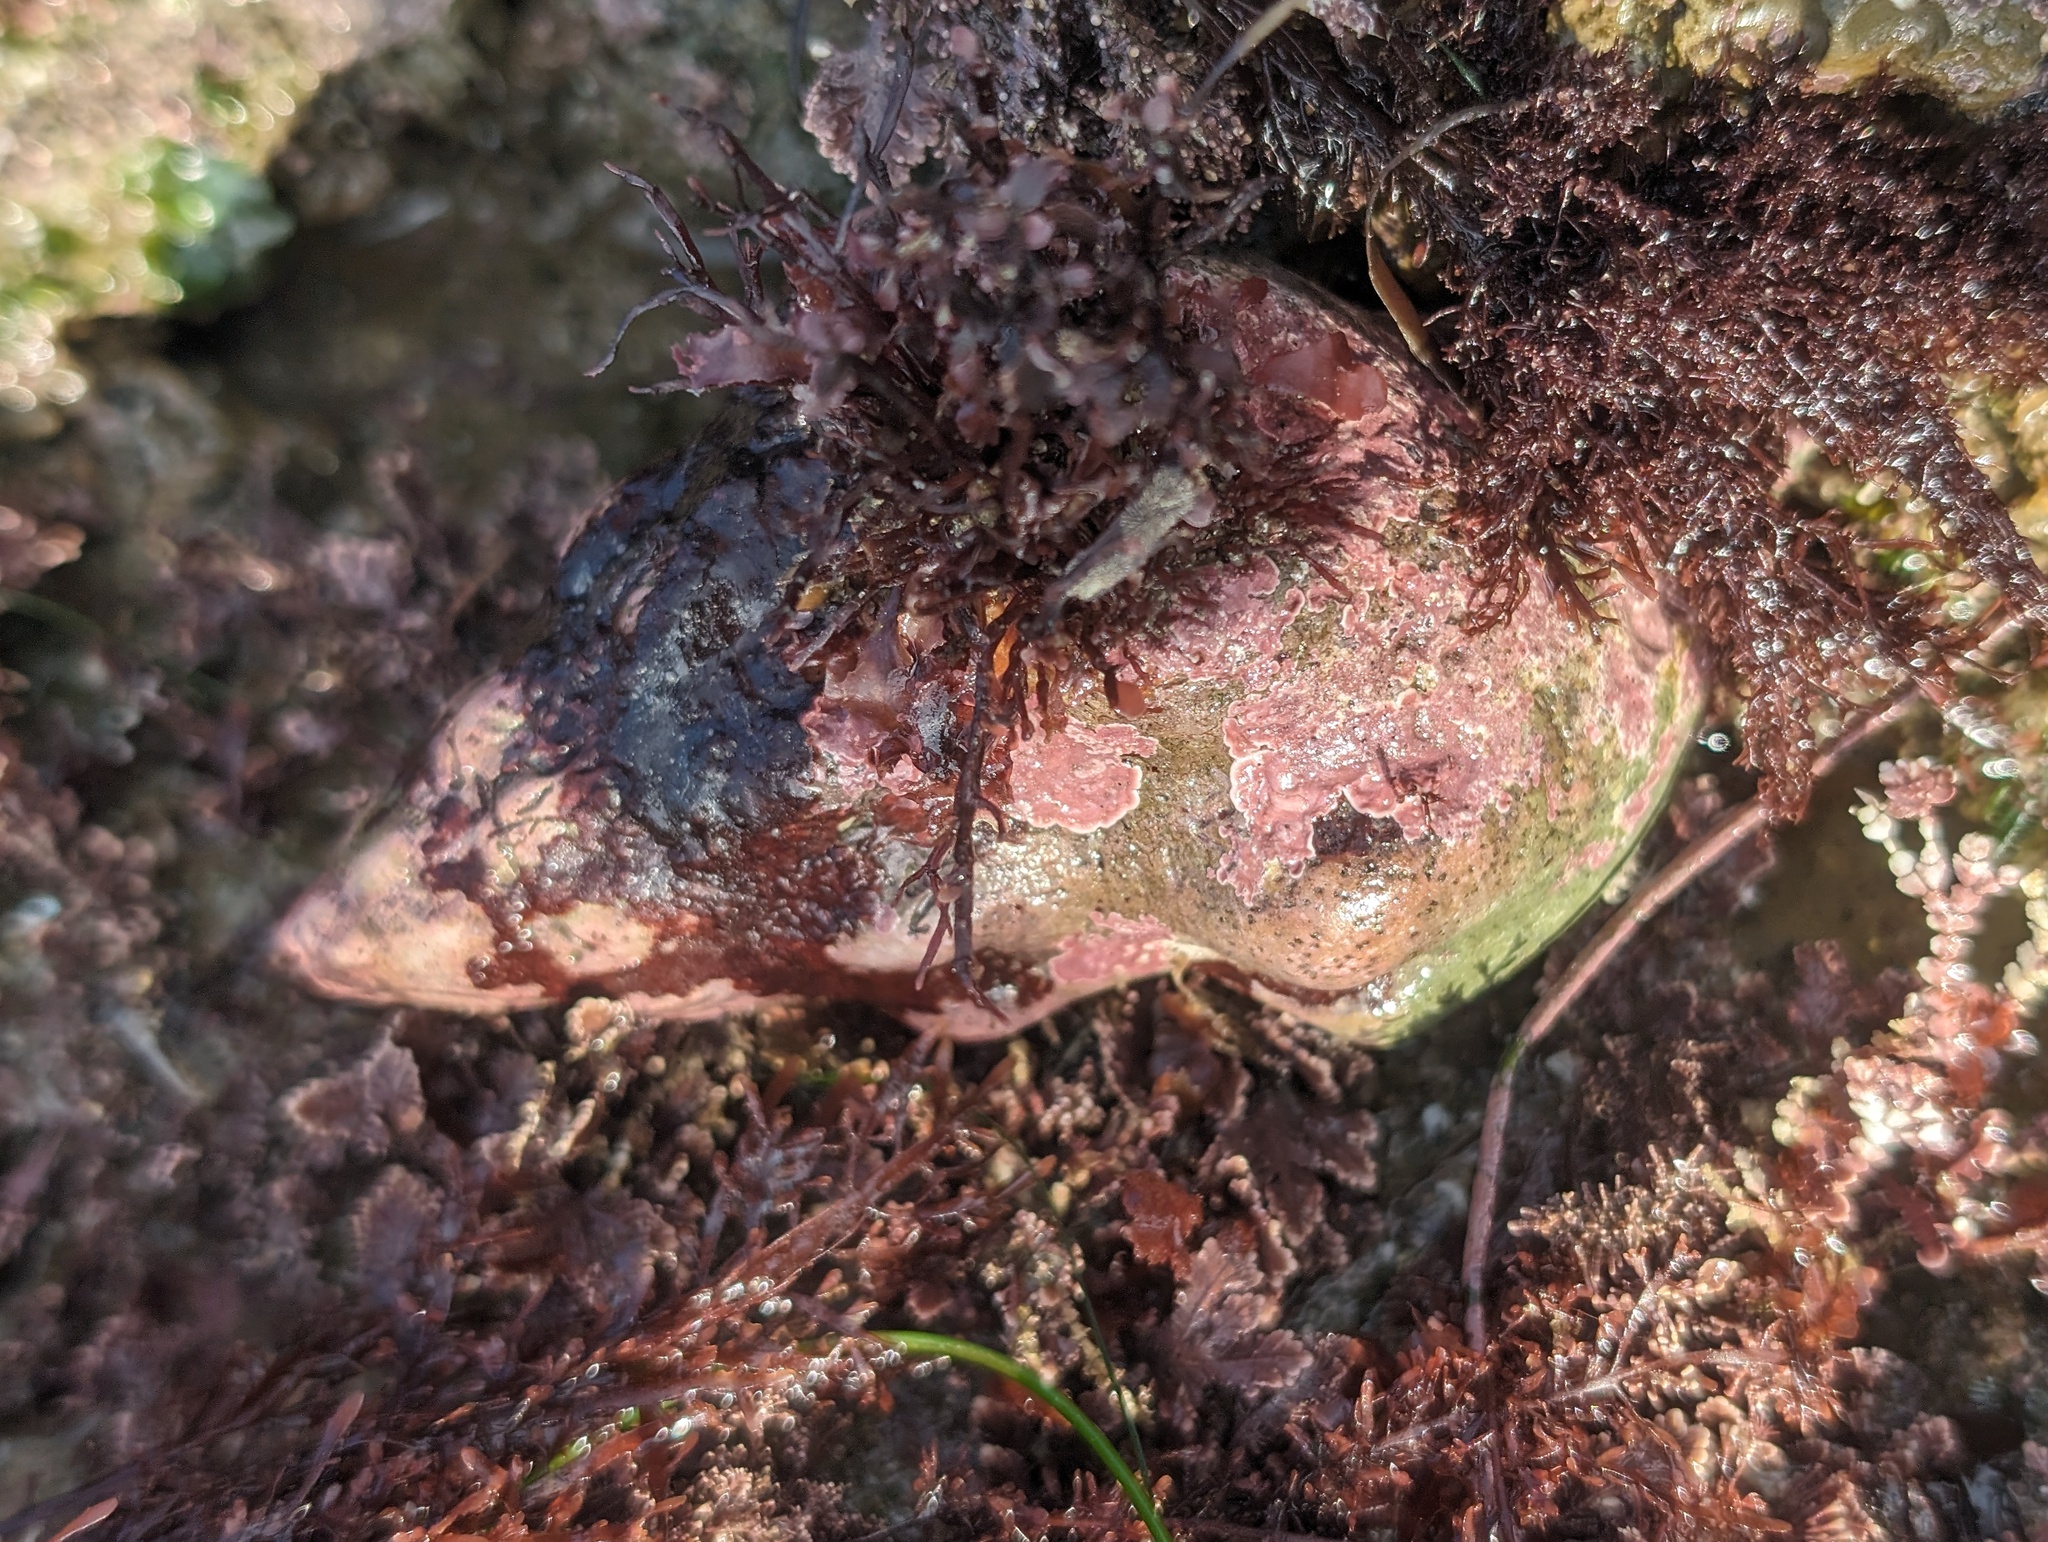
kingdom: Animalia
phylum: Mollusca
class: Gastropoda
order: Neogastropoda
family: Austrosiphonidae
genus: Kelletia
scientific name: Kelletia kelletii
